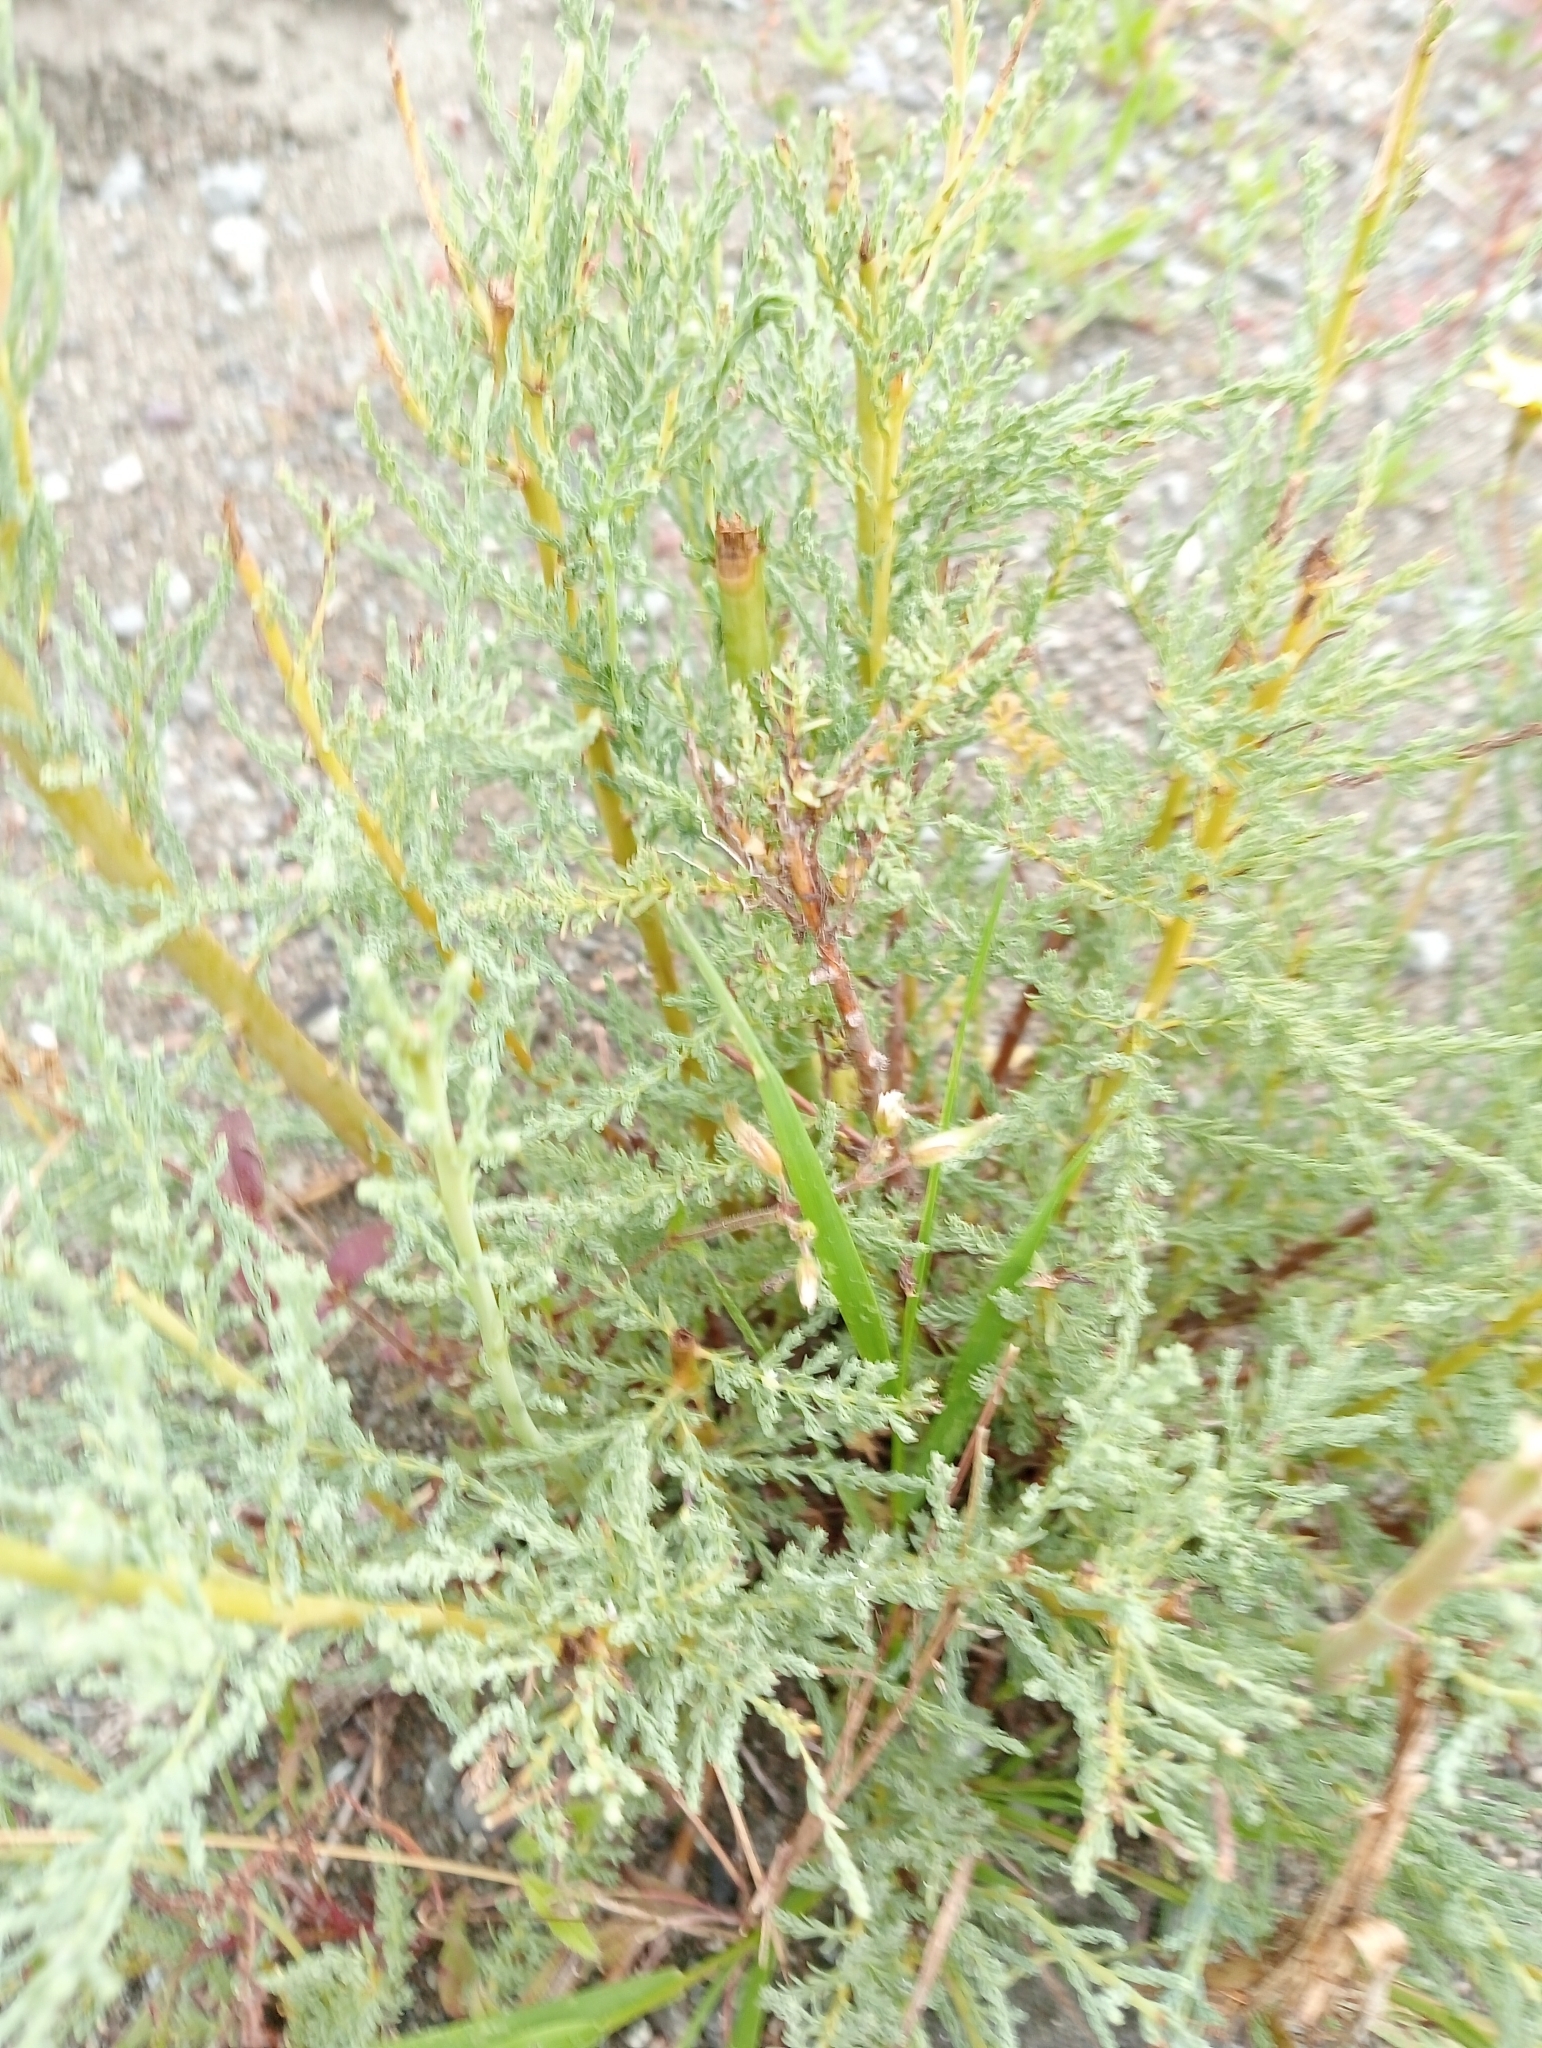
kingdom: Plantae
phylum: Tracheophyta
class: Magnoliopsida
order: Caryophyllales
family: Tamaricaceae
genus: Myricaria
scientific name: Myricaria germanica
